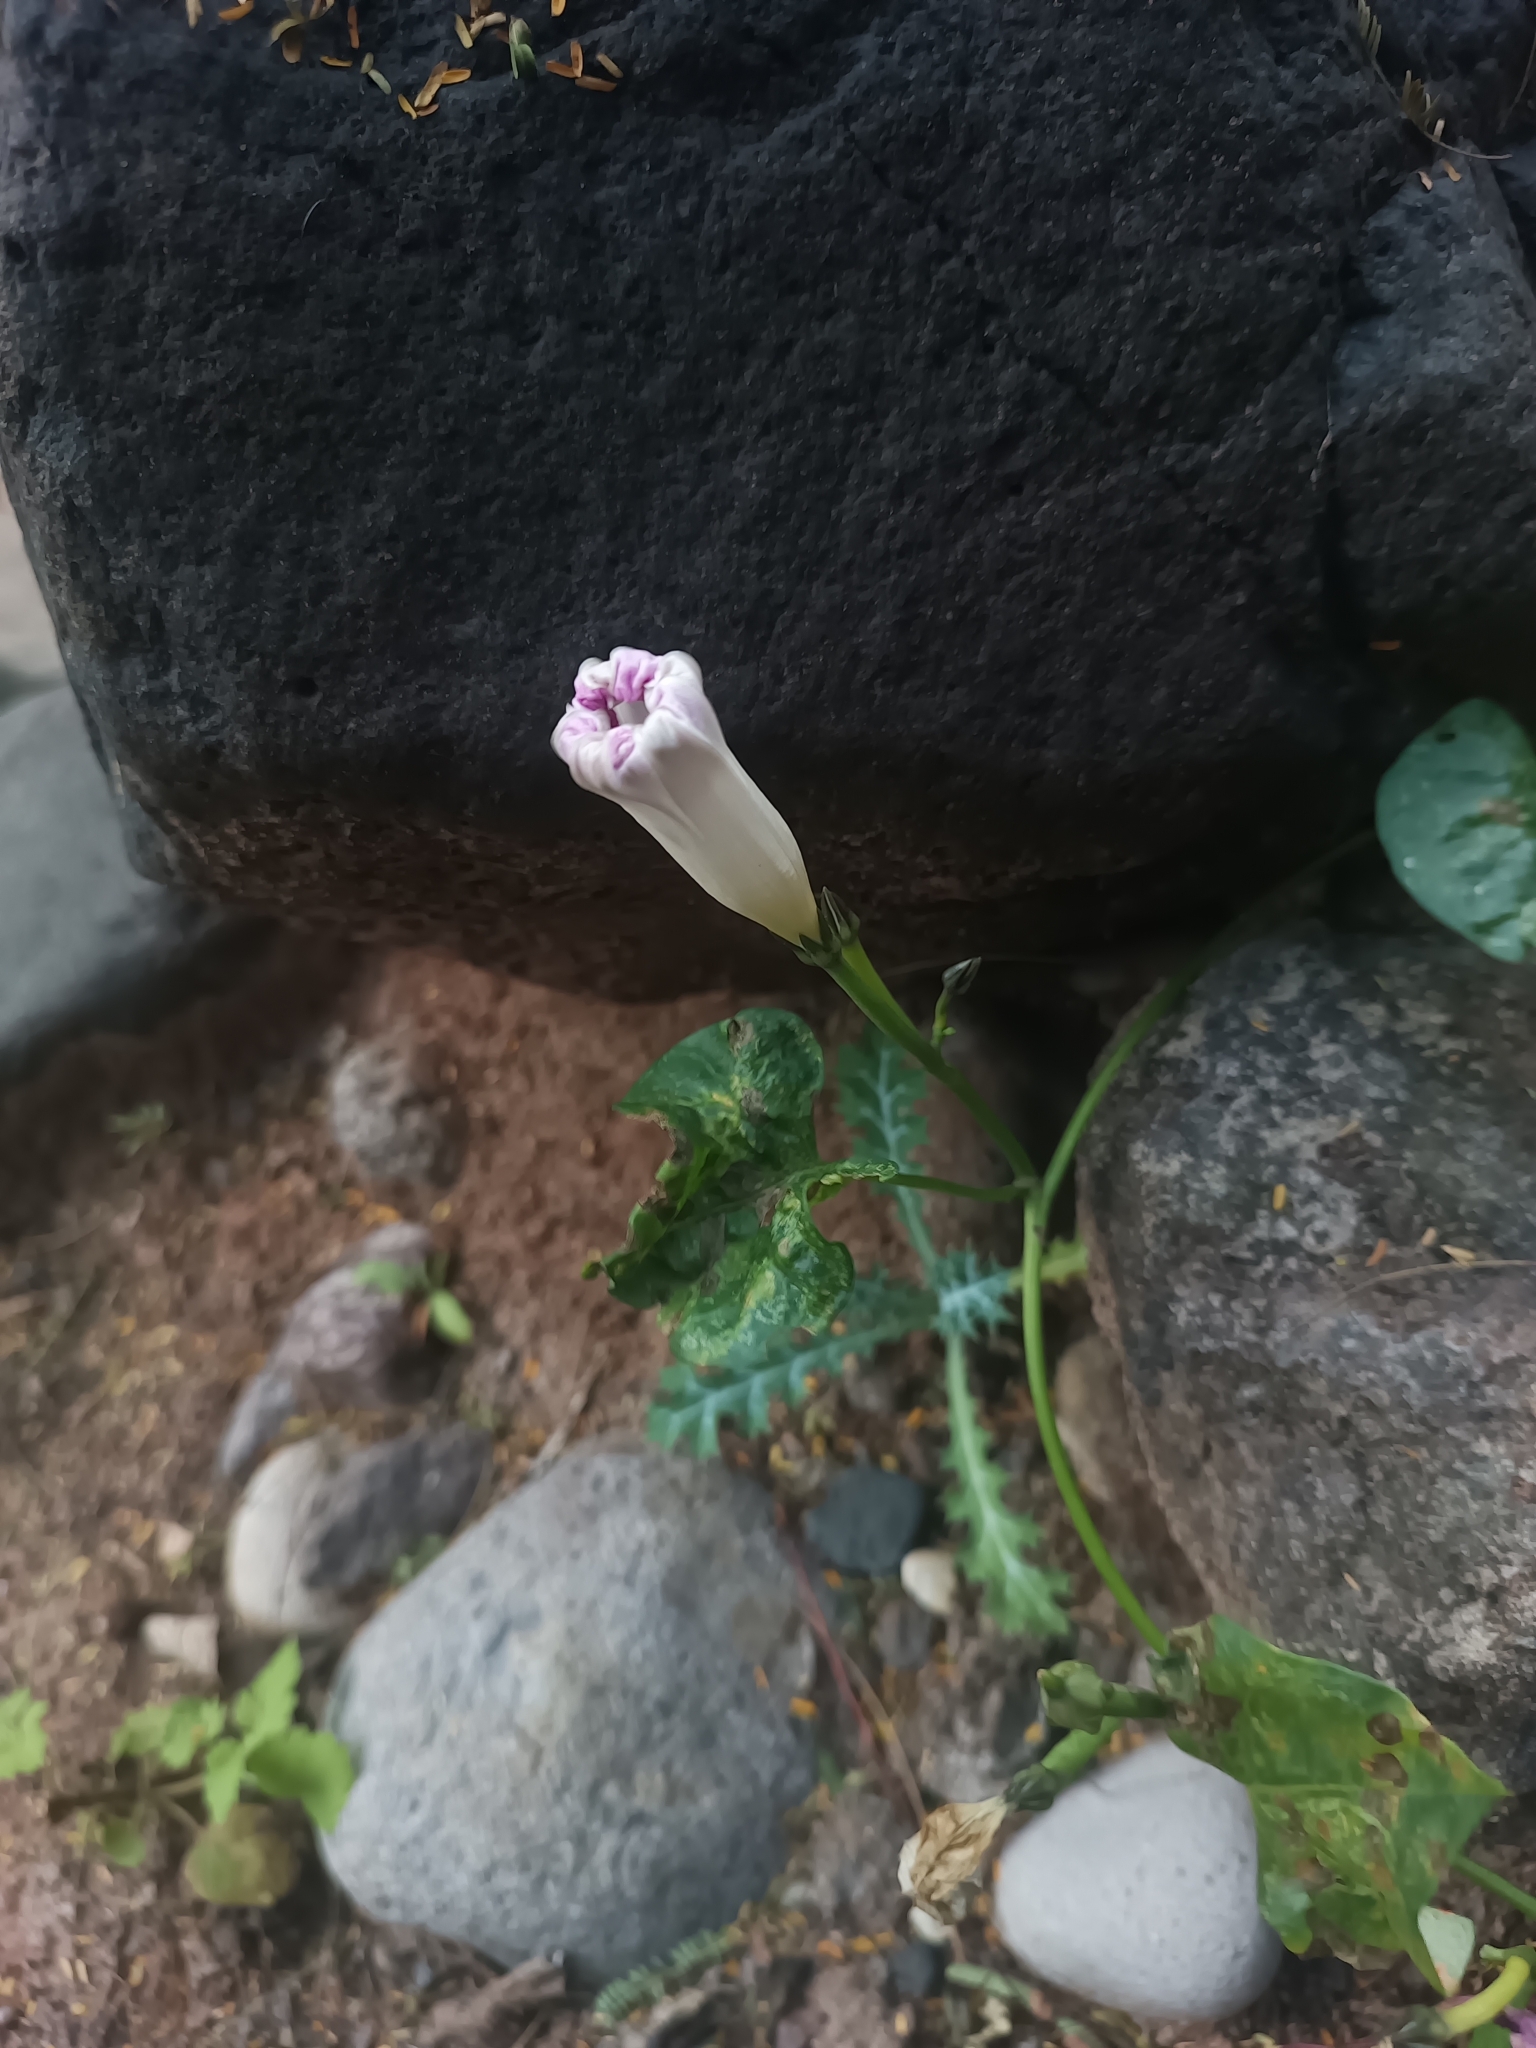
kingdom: Plantae
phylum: Tracheophyta
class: Magnoliopsida
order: Solanales
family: Convolvulaceae
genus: Ipomoea
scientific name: Ipomoea tricolor
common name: Morning-glory
